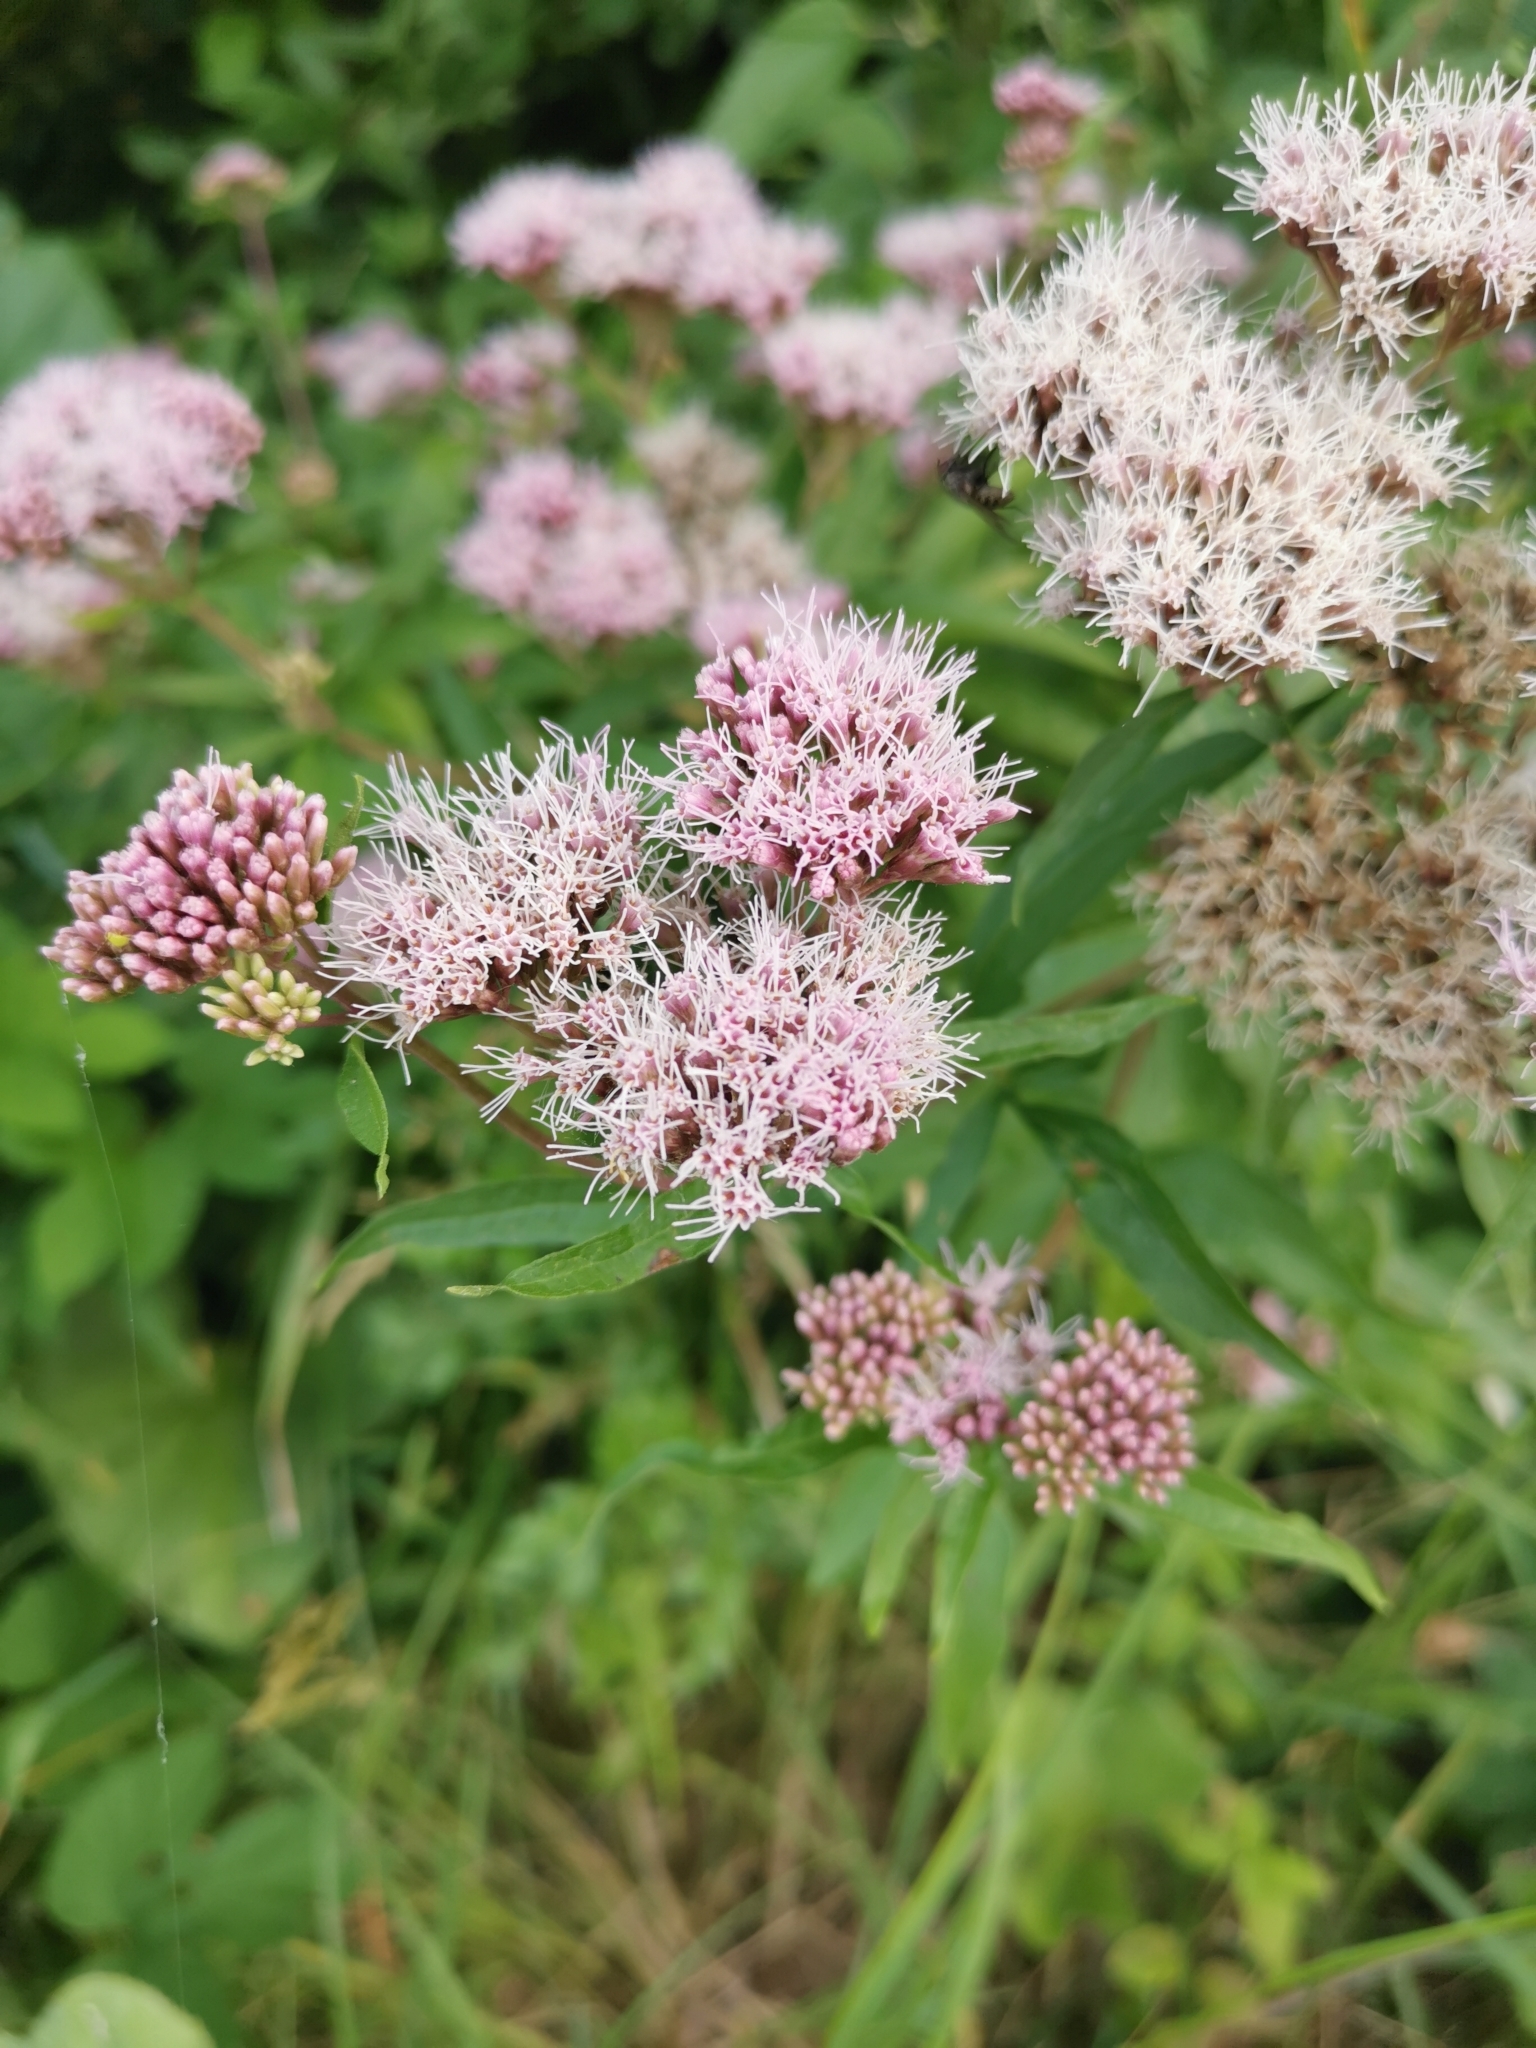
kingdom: Plantae
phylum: Tracheophyta
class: Magnoliopsida
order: Asterales
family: Asteraceae
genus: Eupatorium
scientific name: Eupatorium cannabinum
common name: Hemp-agrimony
